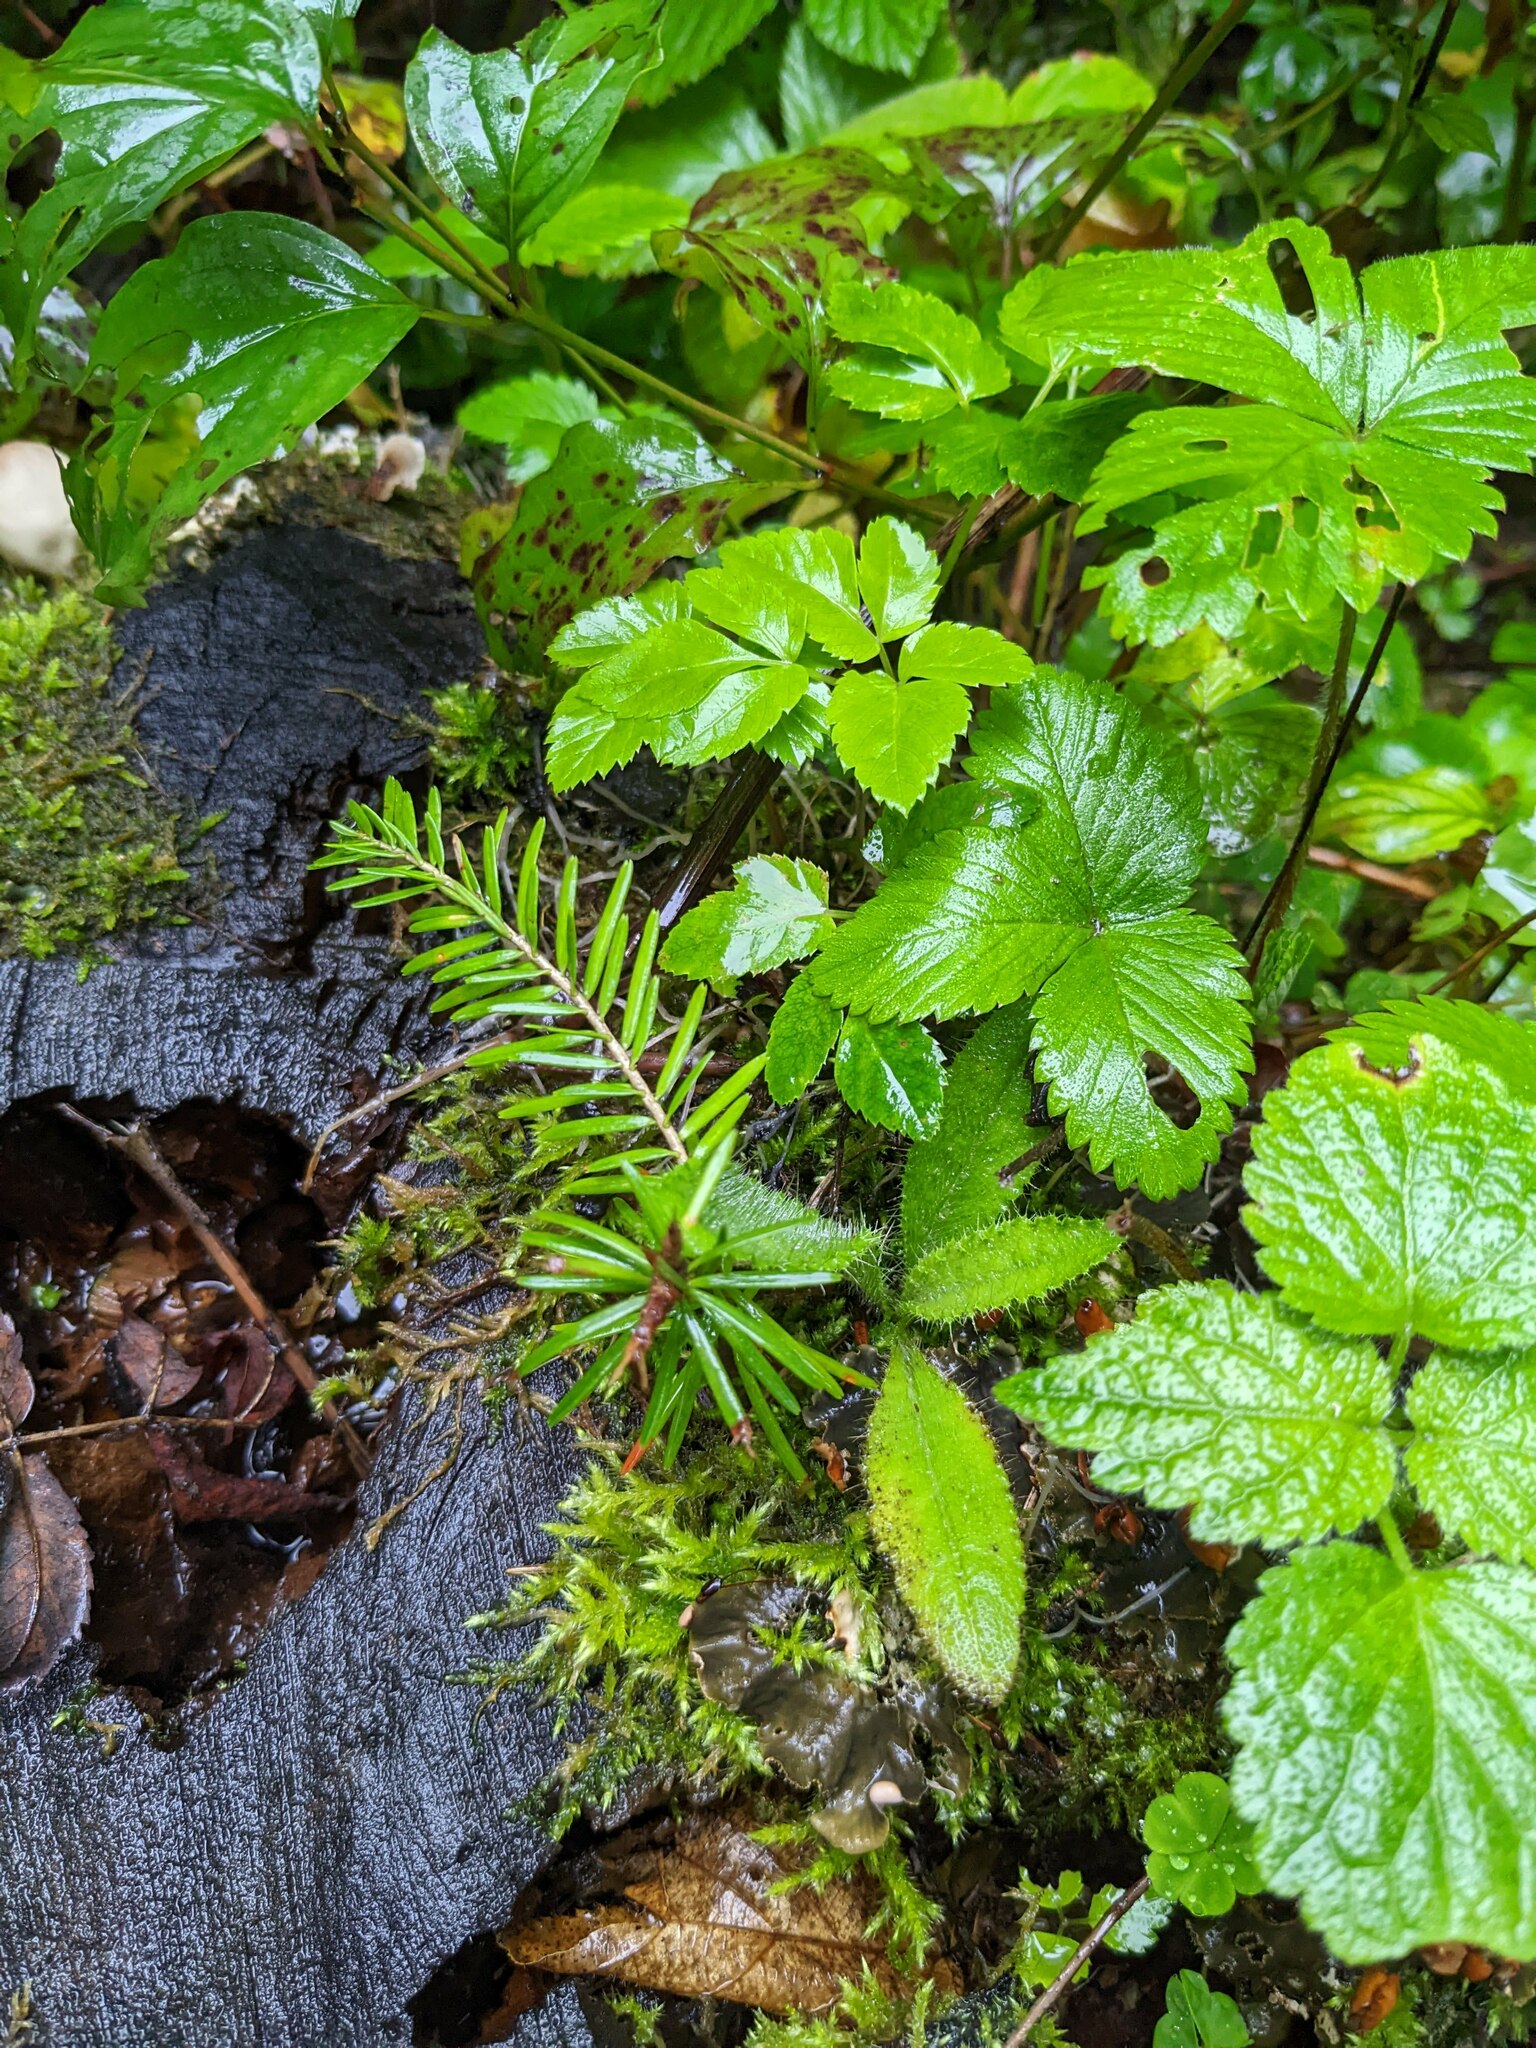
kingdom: Plantae
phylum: Tracheophyta
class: Pinopsida
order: Pinales
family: Pinaceae
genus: Abies
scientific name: Abies alba
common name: Silver fir
